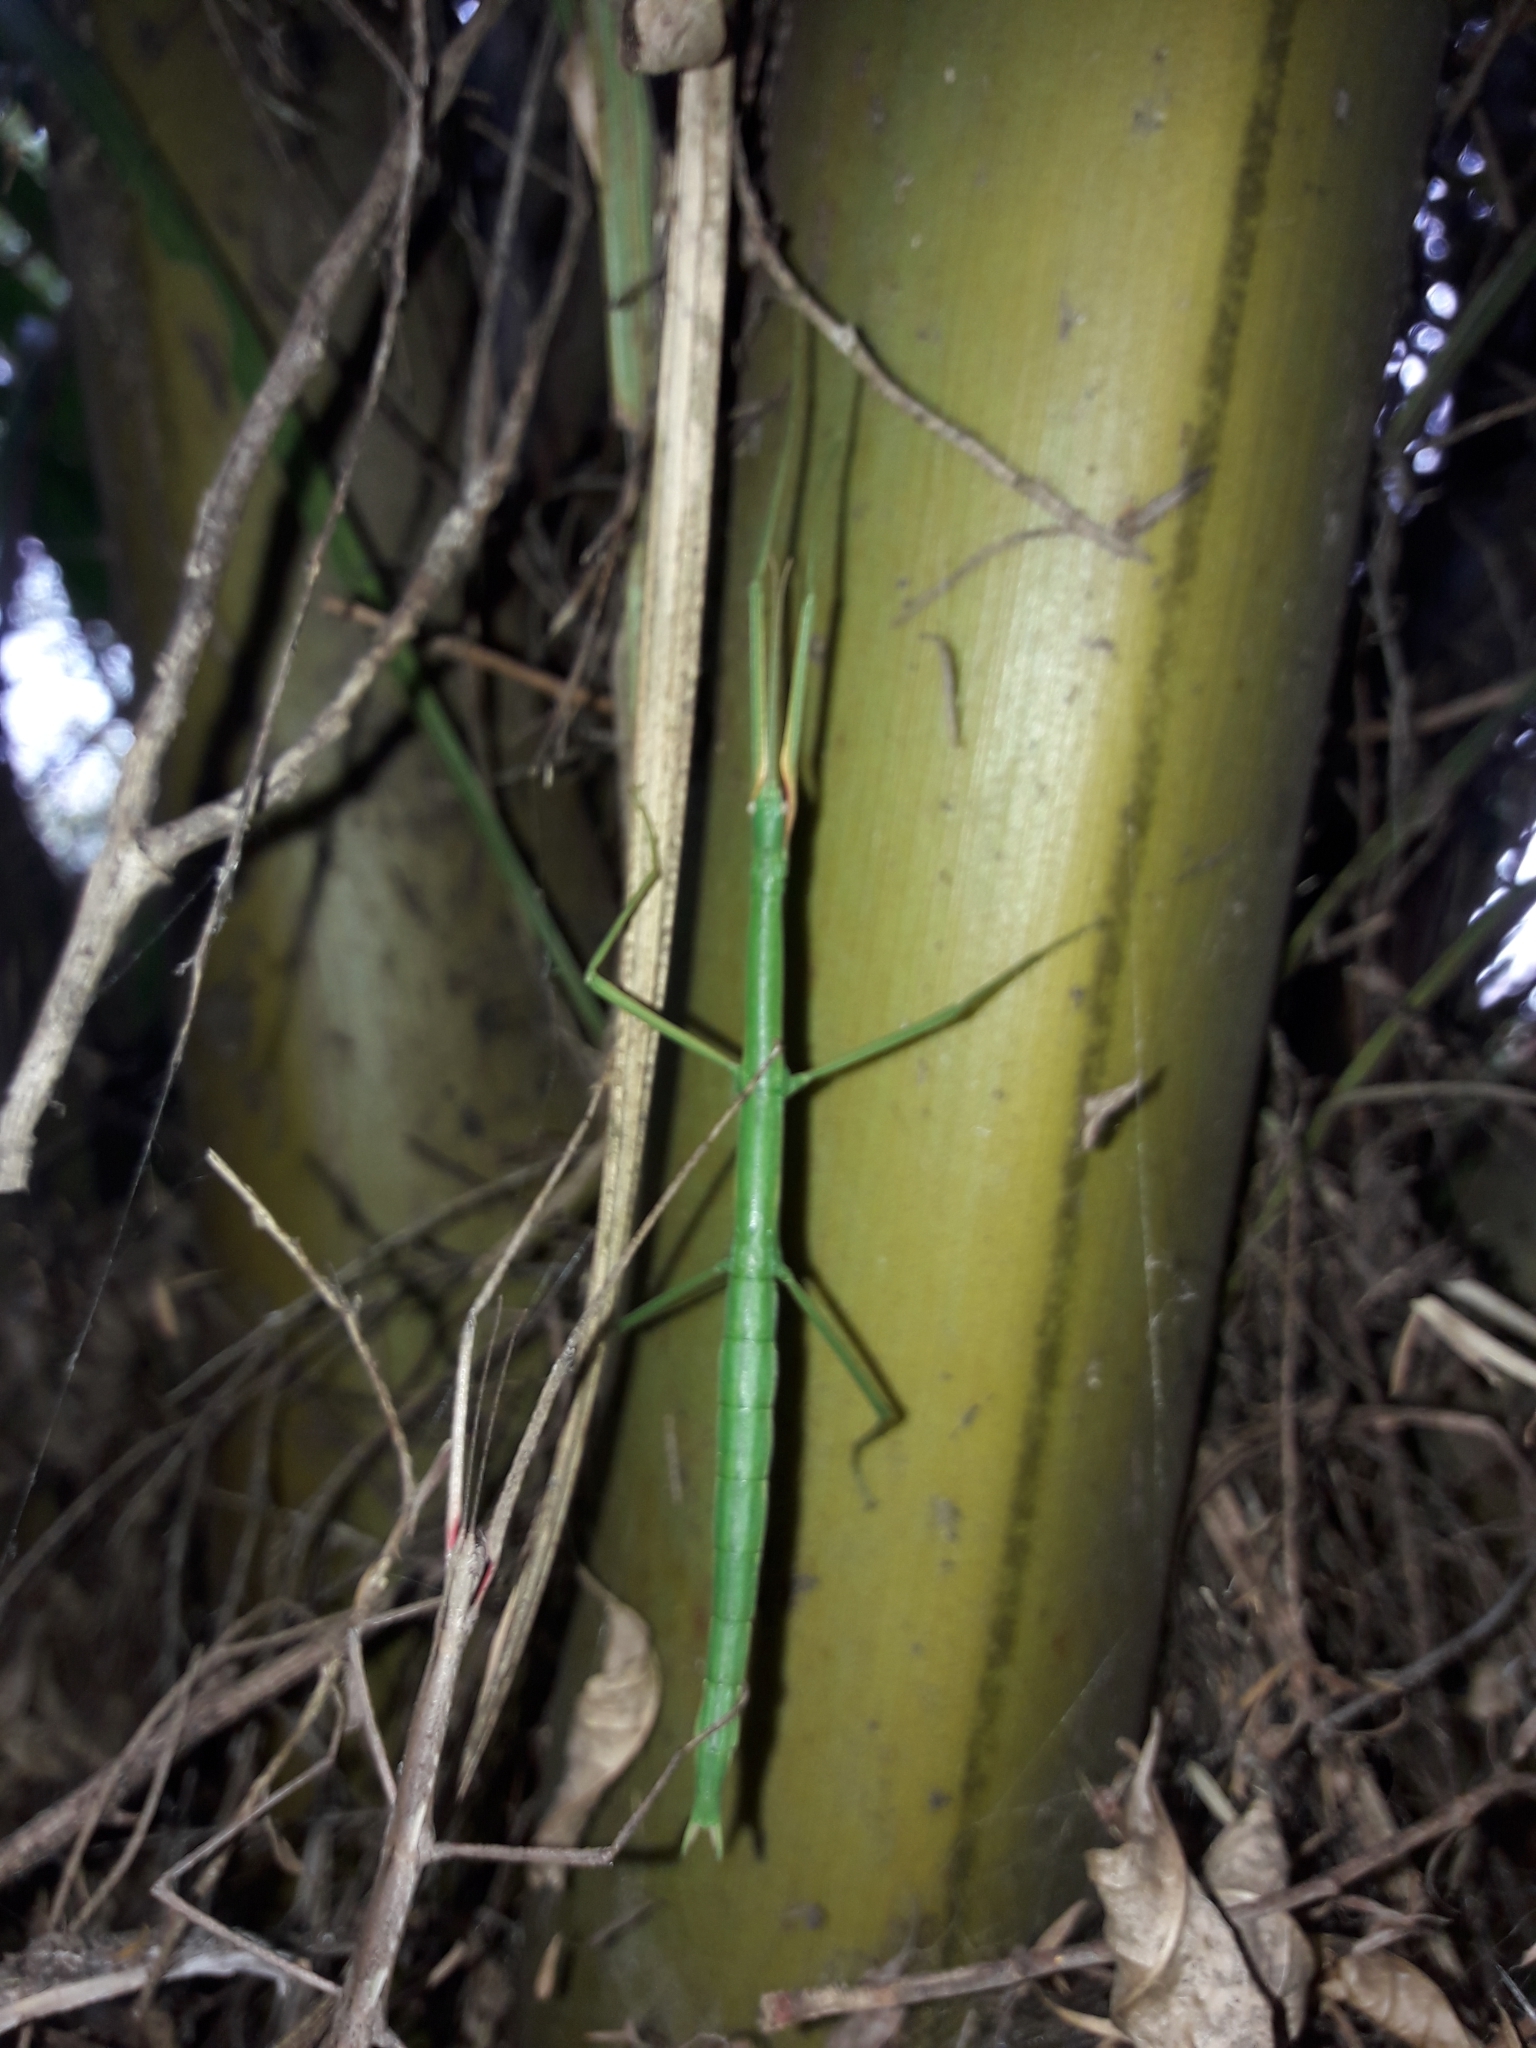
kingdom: Animalia
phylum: Arthropoda
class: Insecta
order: Phasmida
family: Phasmatidae
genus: Clitarchus
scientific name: Clitarchus hookeri
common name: Smooth stick insect
